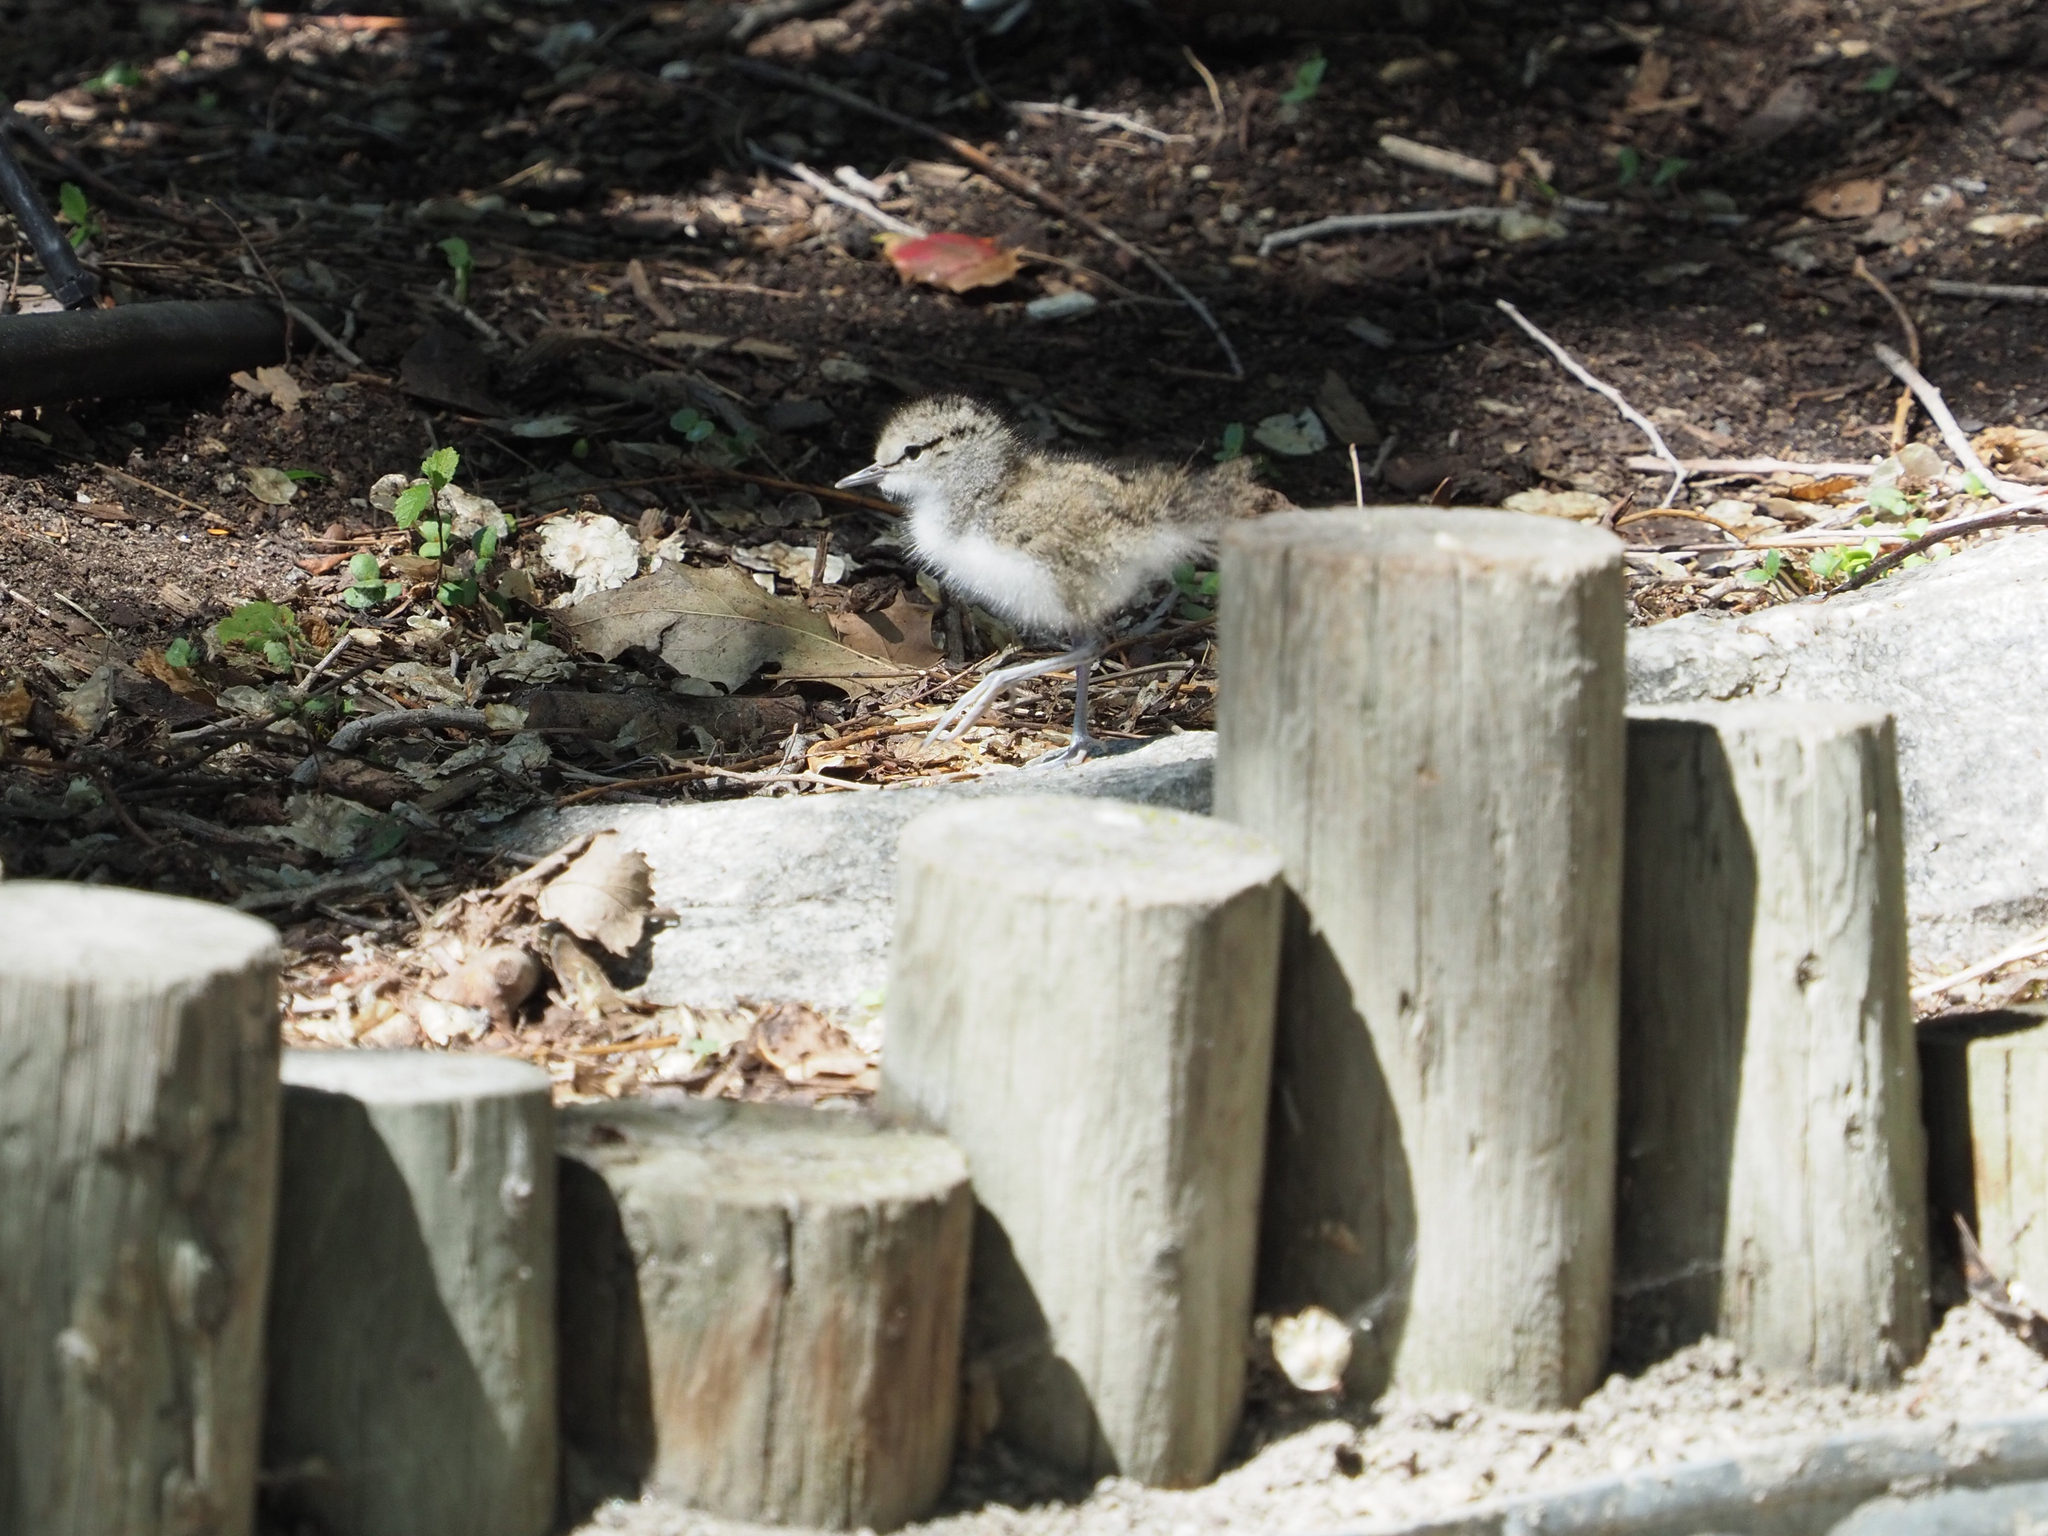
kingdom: Animalia
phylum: Chordata
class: Aves
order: Charadriiformes
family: Scolopacidae
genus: Actitis
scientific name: Actitis macularius
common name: Spotted sandpiper
